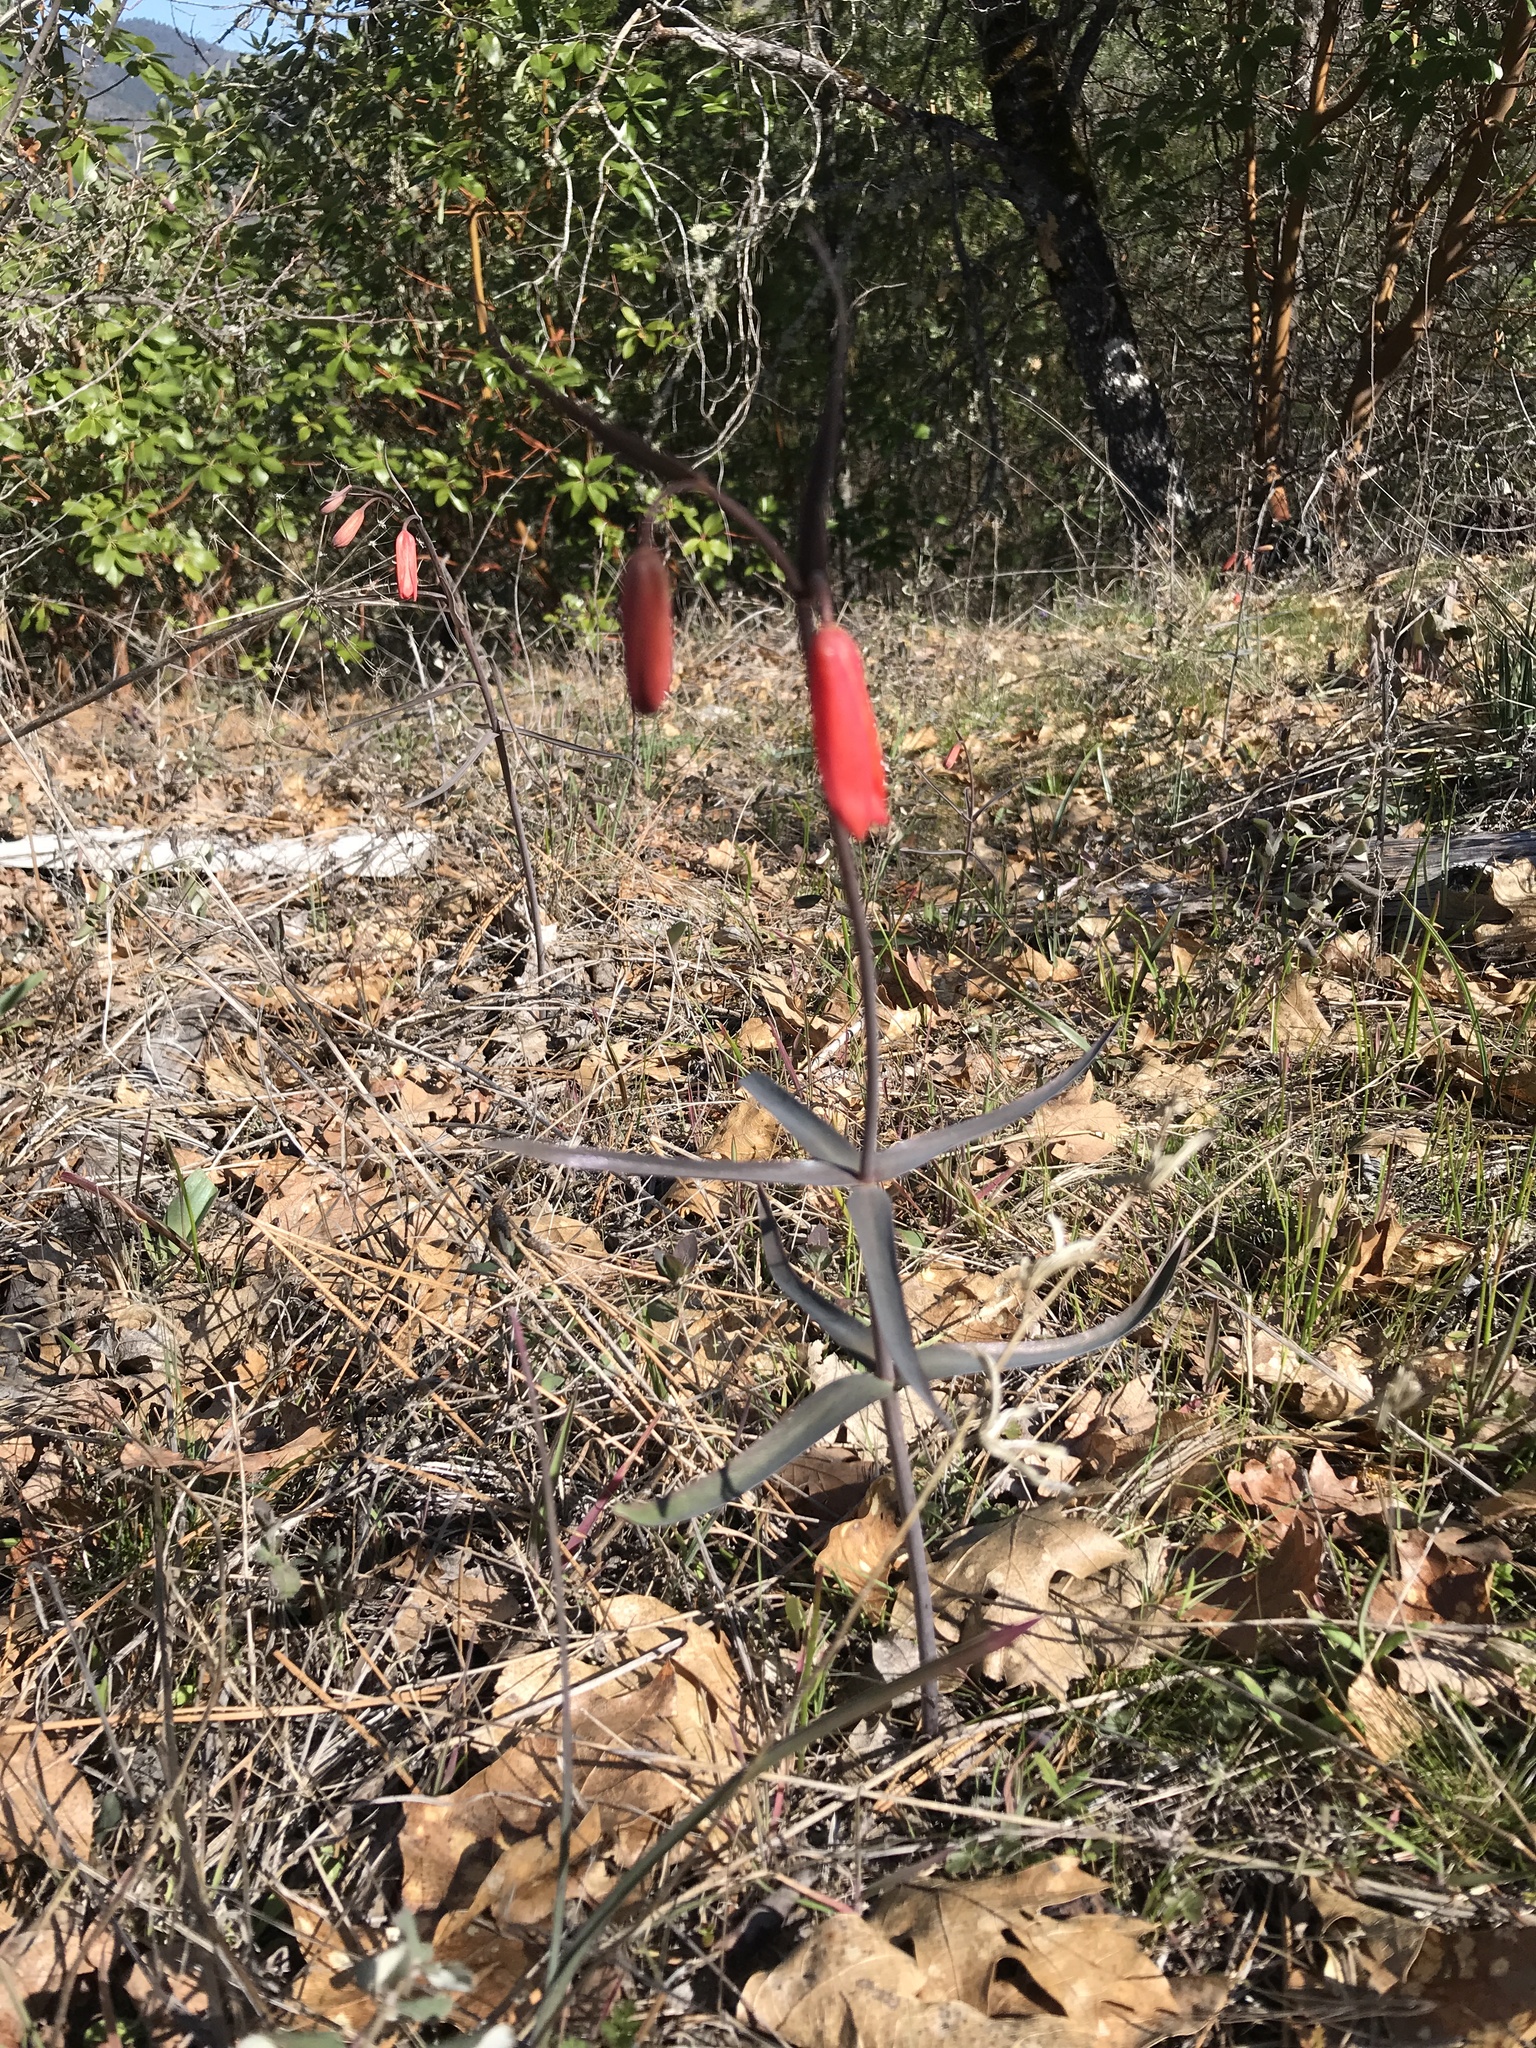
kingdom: Plantae
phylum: Tracheophyta
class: Liliopsida
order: Liliales
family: Liliaceae
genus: Fritillaria
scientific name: Fritillaria recurva
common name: Scarlet fritillary
